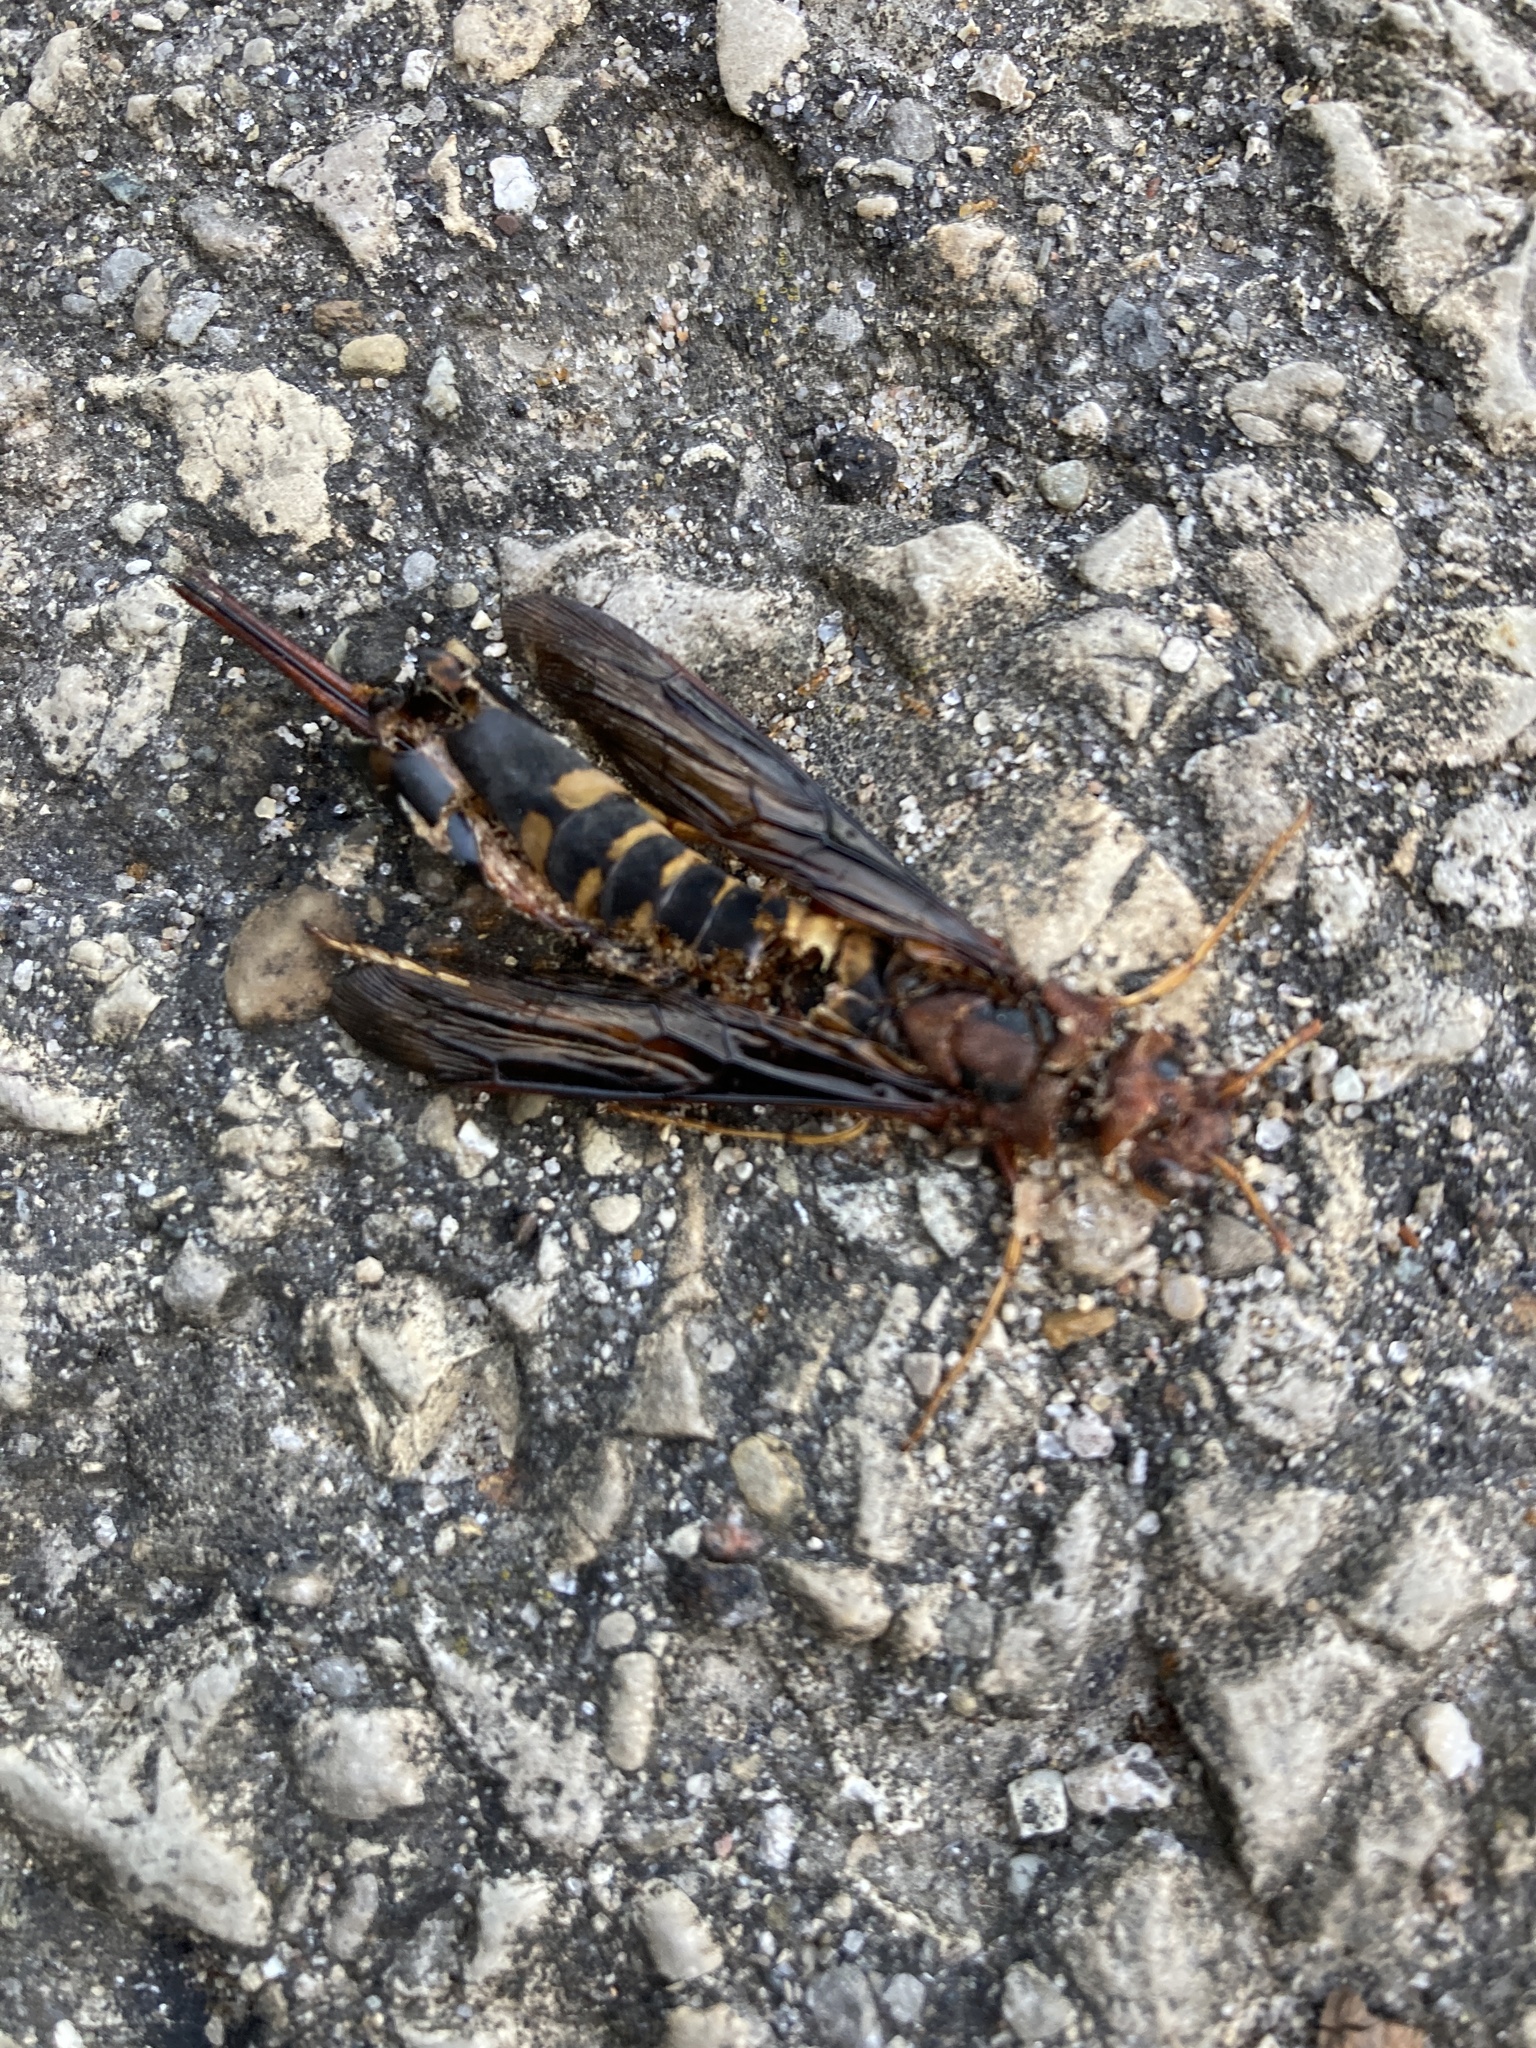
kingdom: Animalia
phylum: Arthropoda
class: Insecta
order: Hymenoptera
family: Siricidae
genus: Tremex
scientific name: Tremex columba
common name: Wasp
